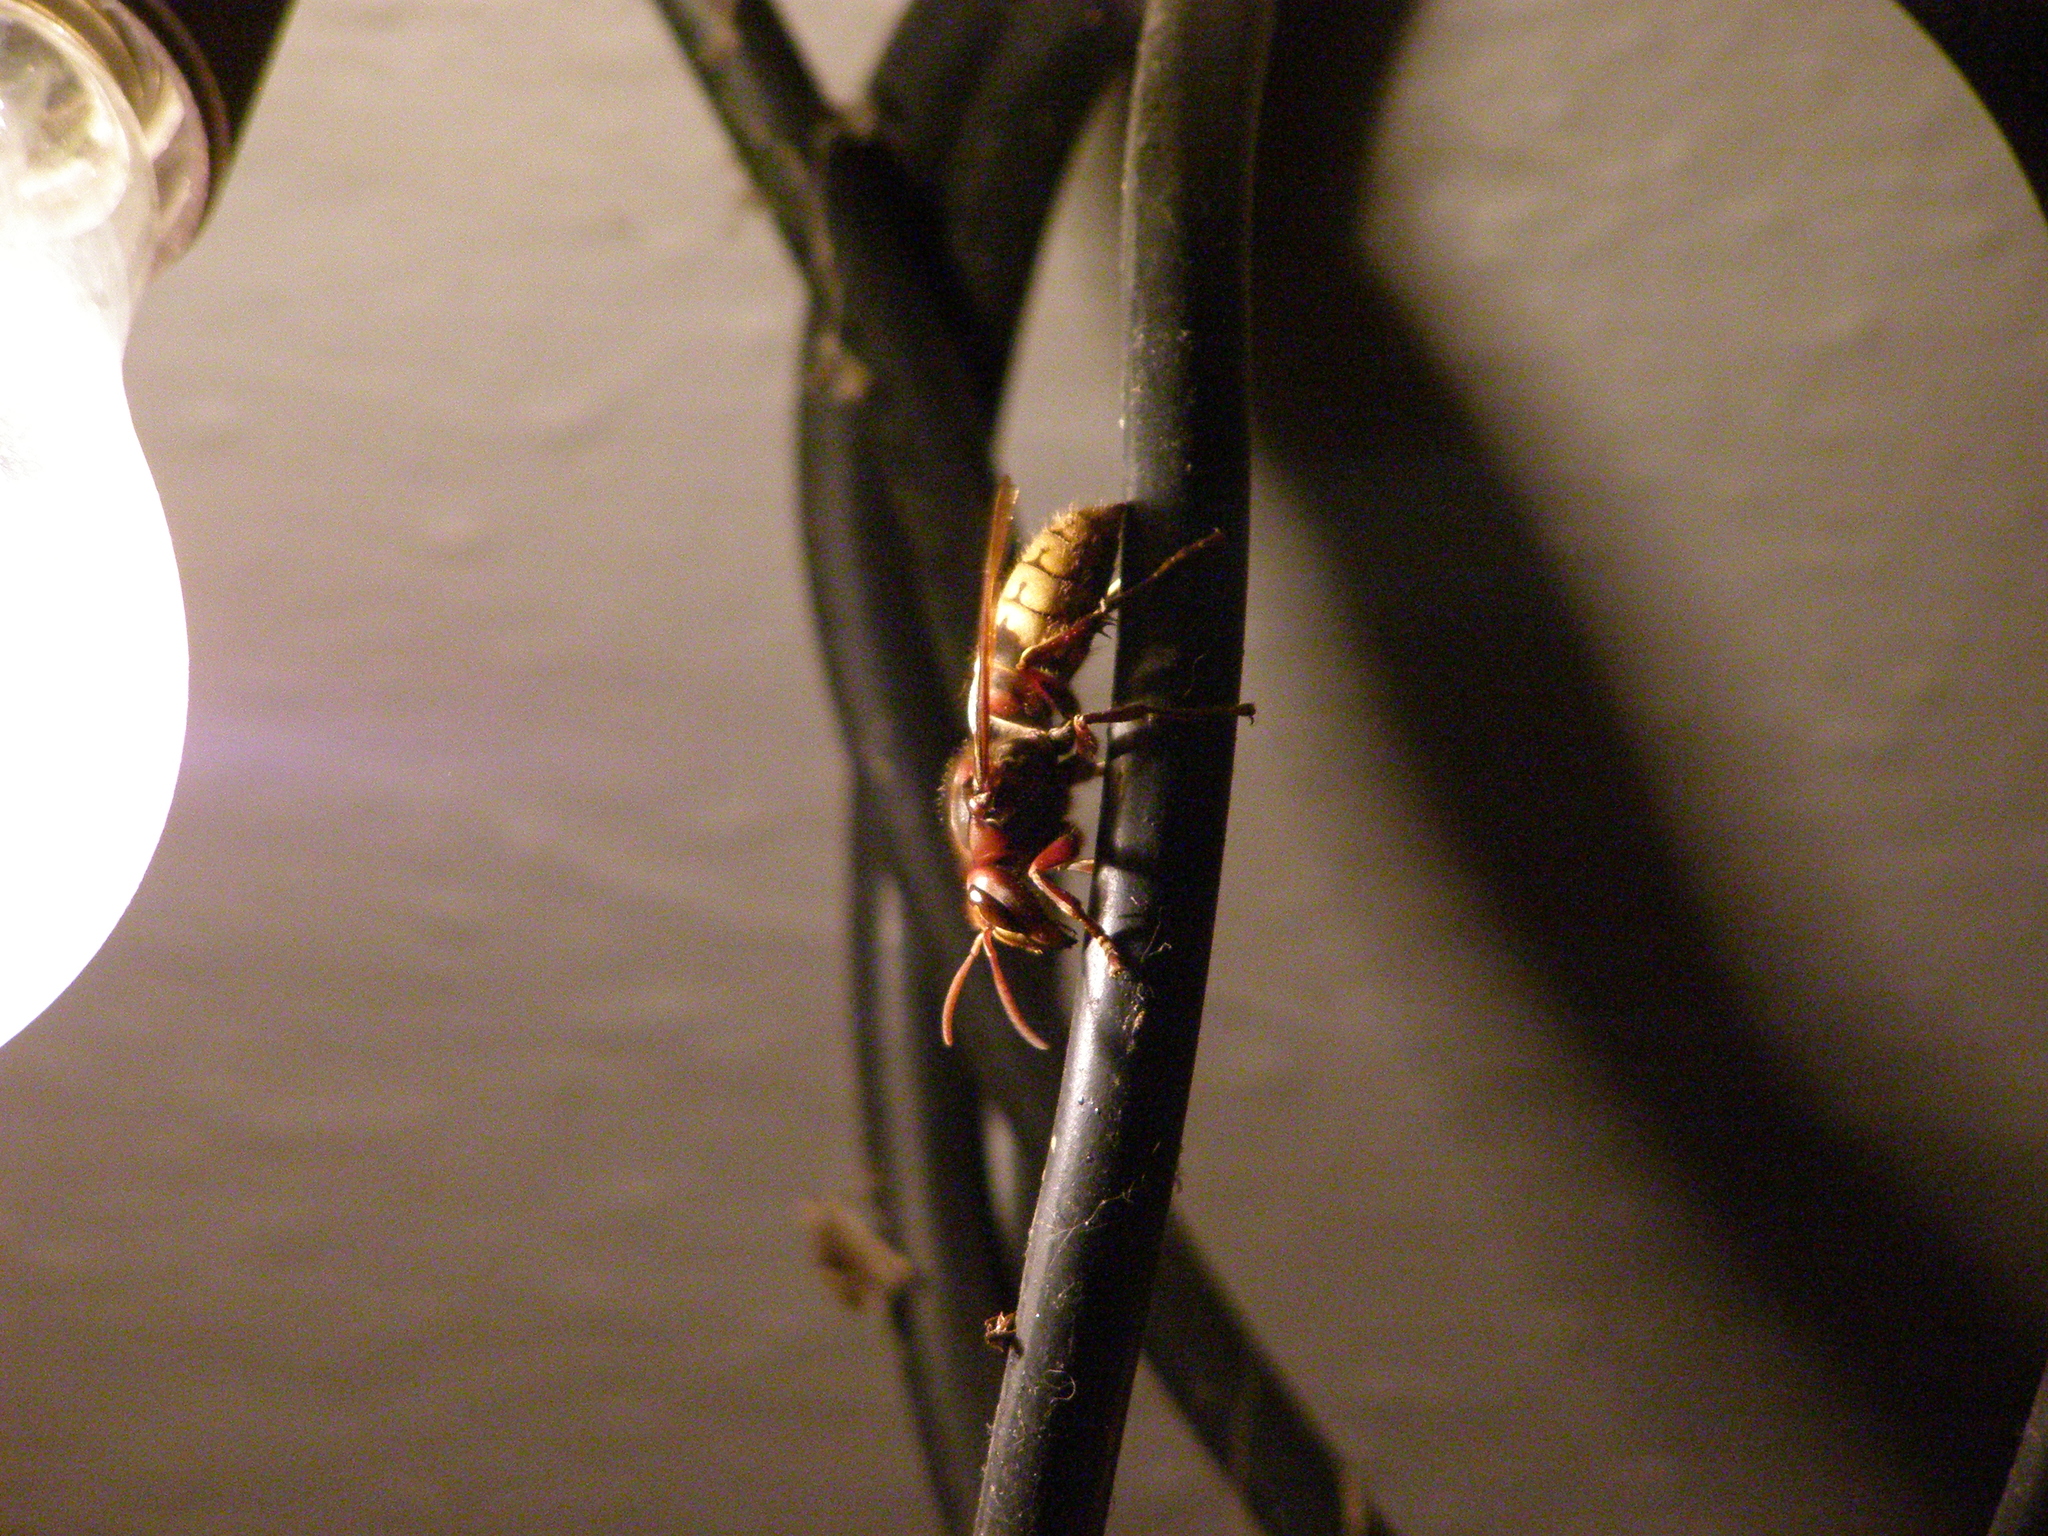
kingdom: Animalia
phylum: Arthropoda
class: Insecta
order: Hymenoptera
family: Vespidae
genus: Vespa
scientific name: Vespa crabro
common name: Hornet
